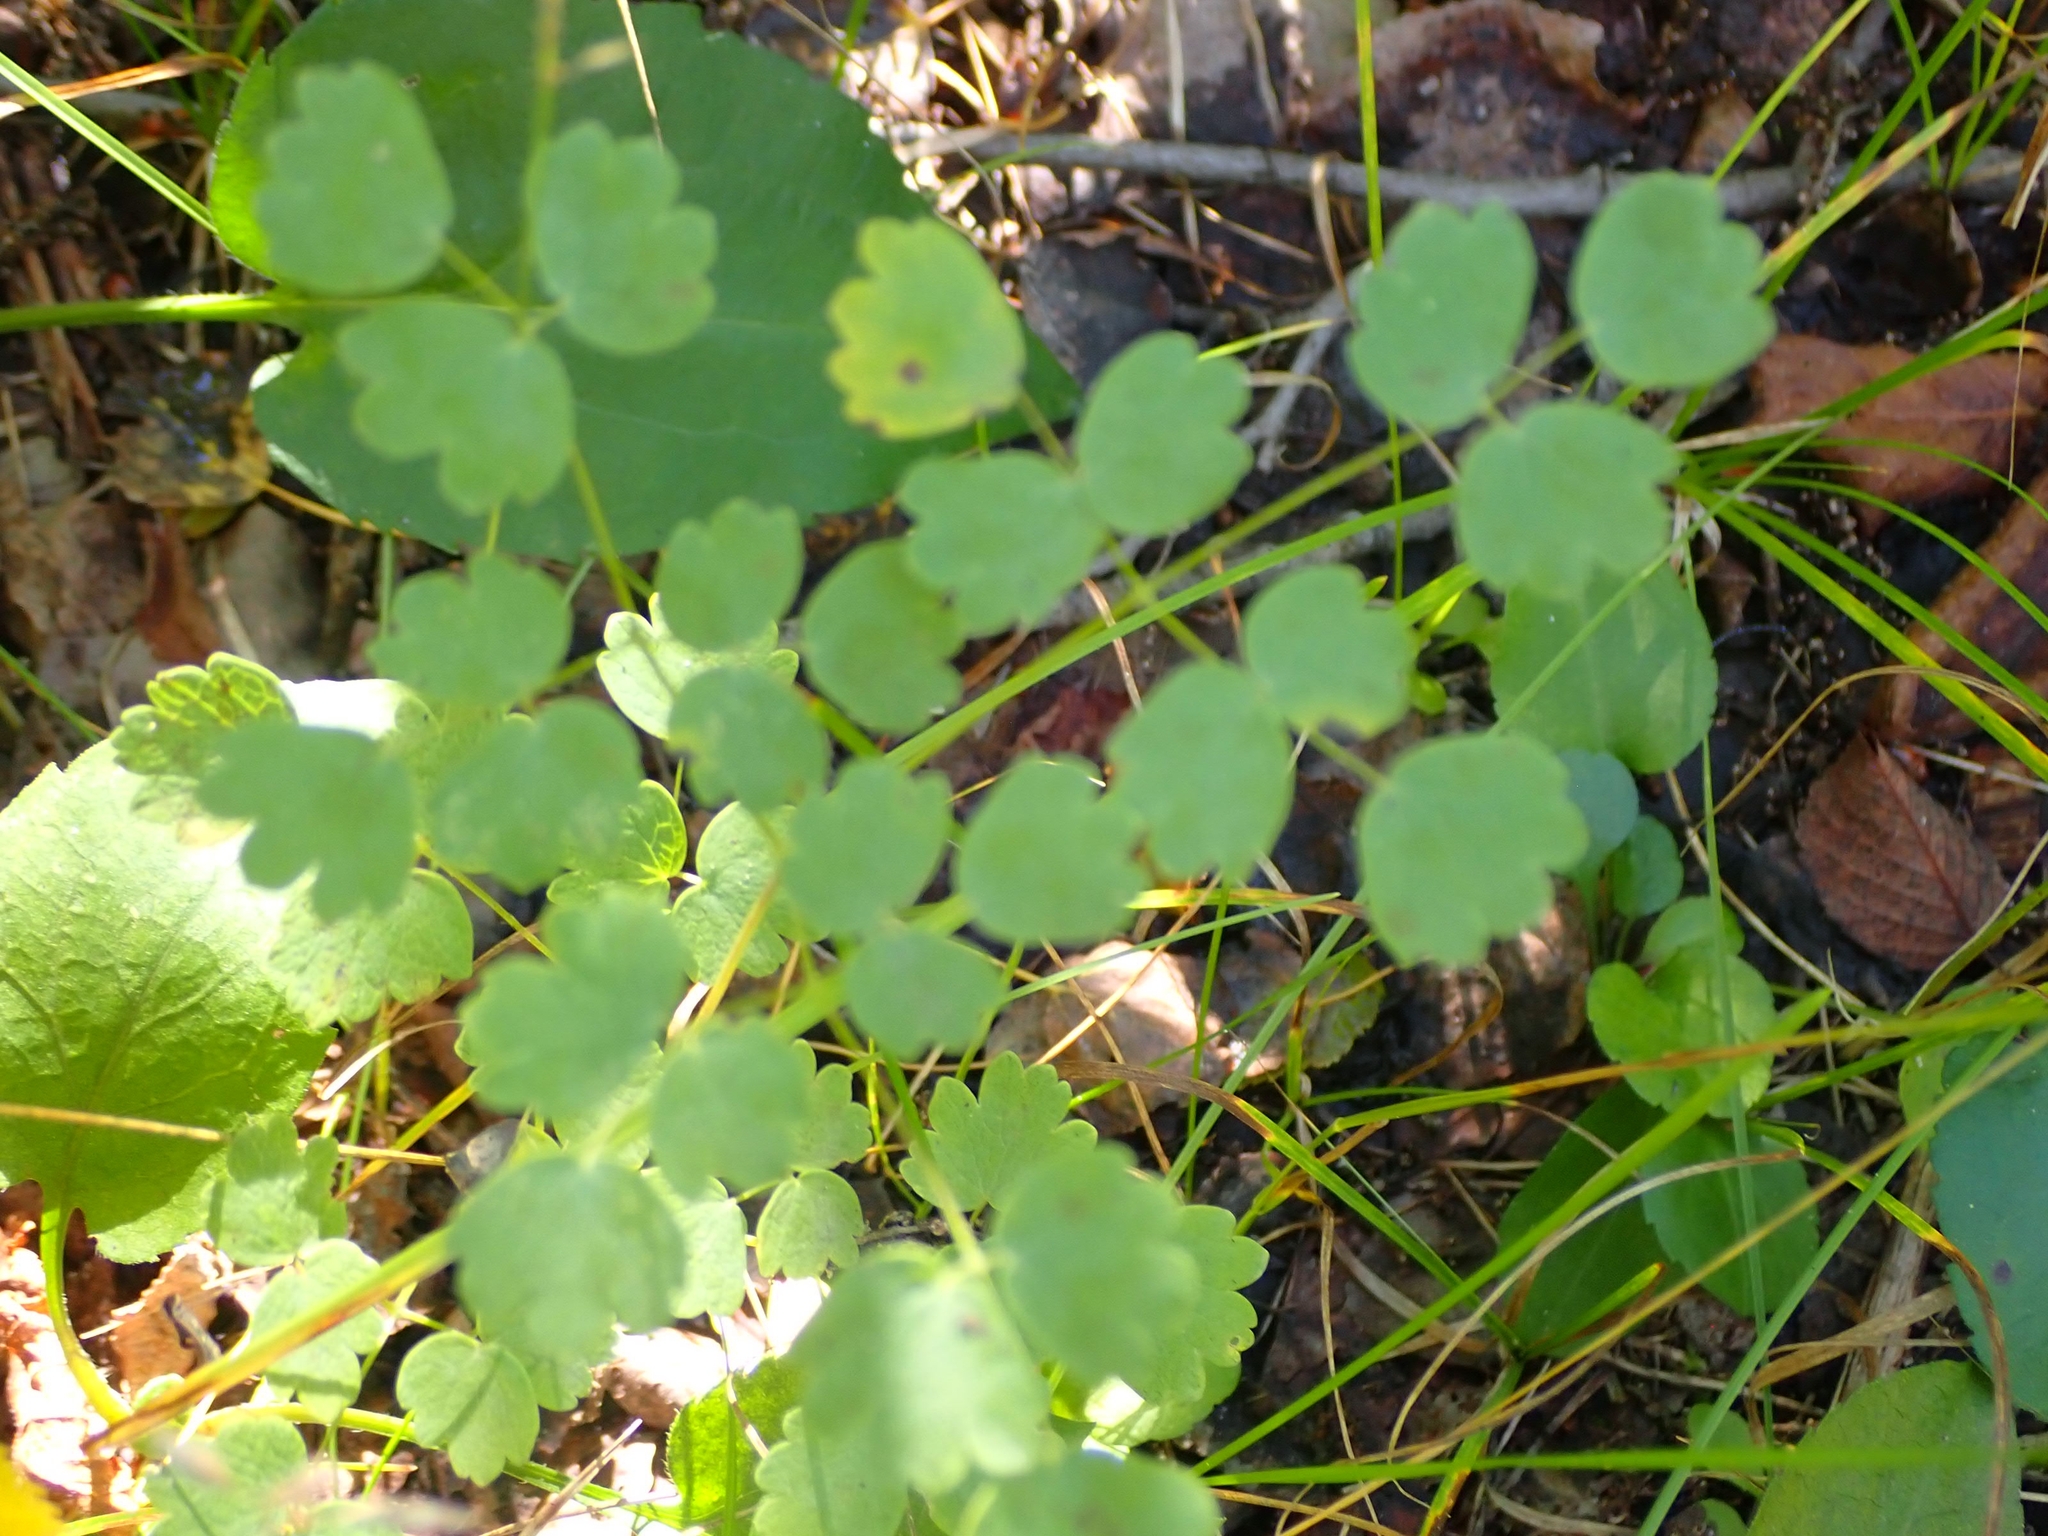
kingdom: Plantae
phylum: Tracheophyta
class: Magnoliopsida
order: Ranunculales
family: Ranunculaceae
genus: Thalictrum
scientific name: Thalictrum venulosum
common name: Early meadow-rue
